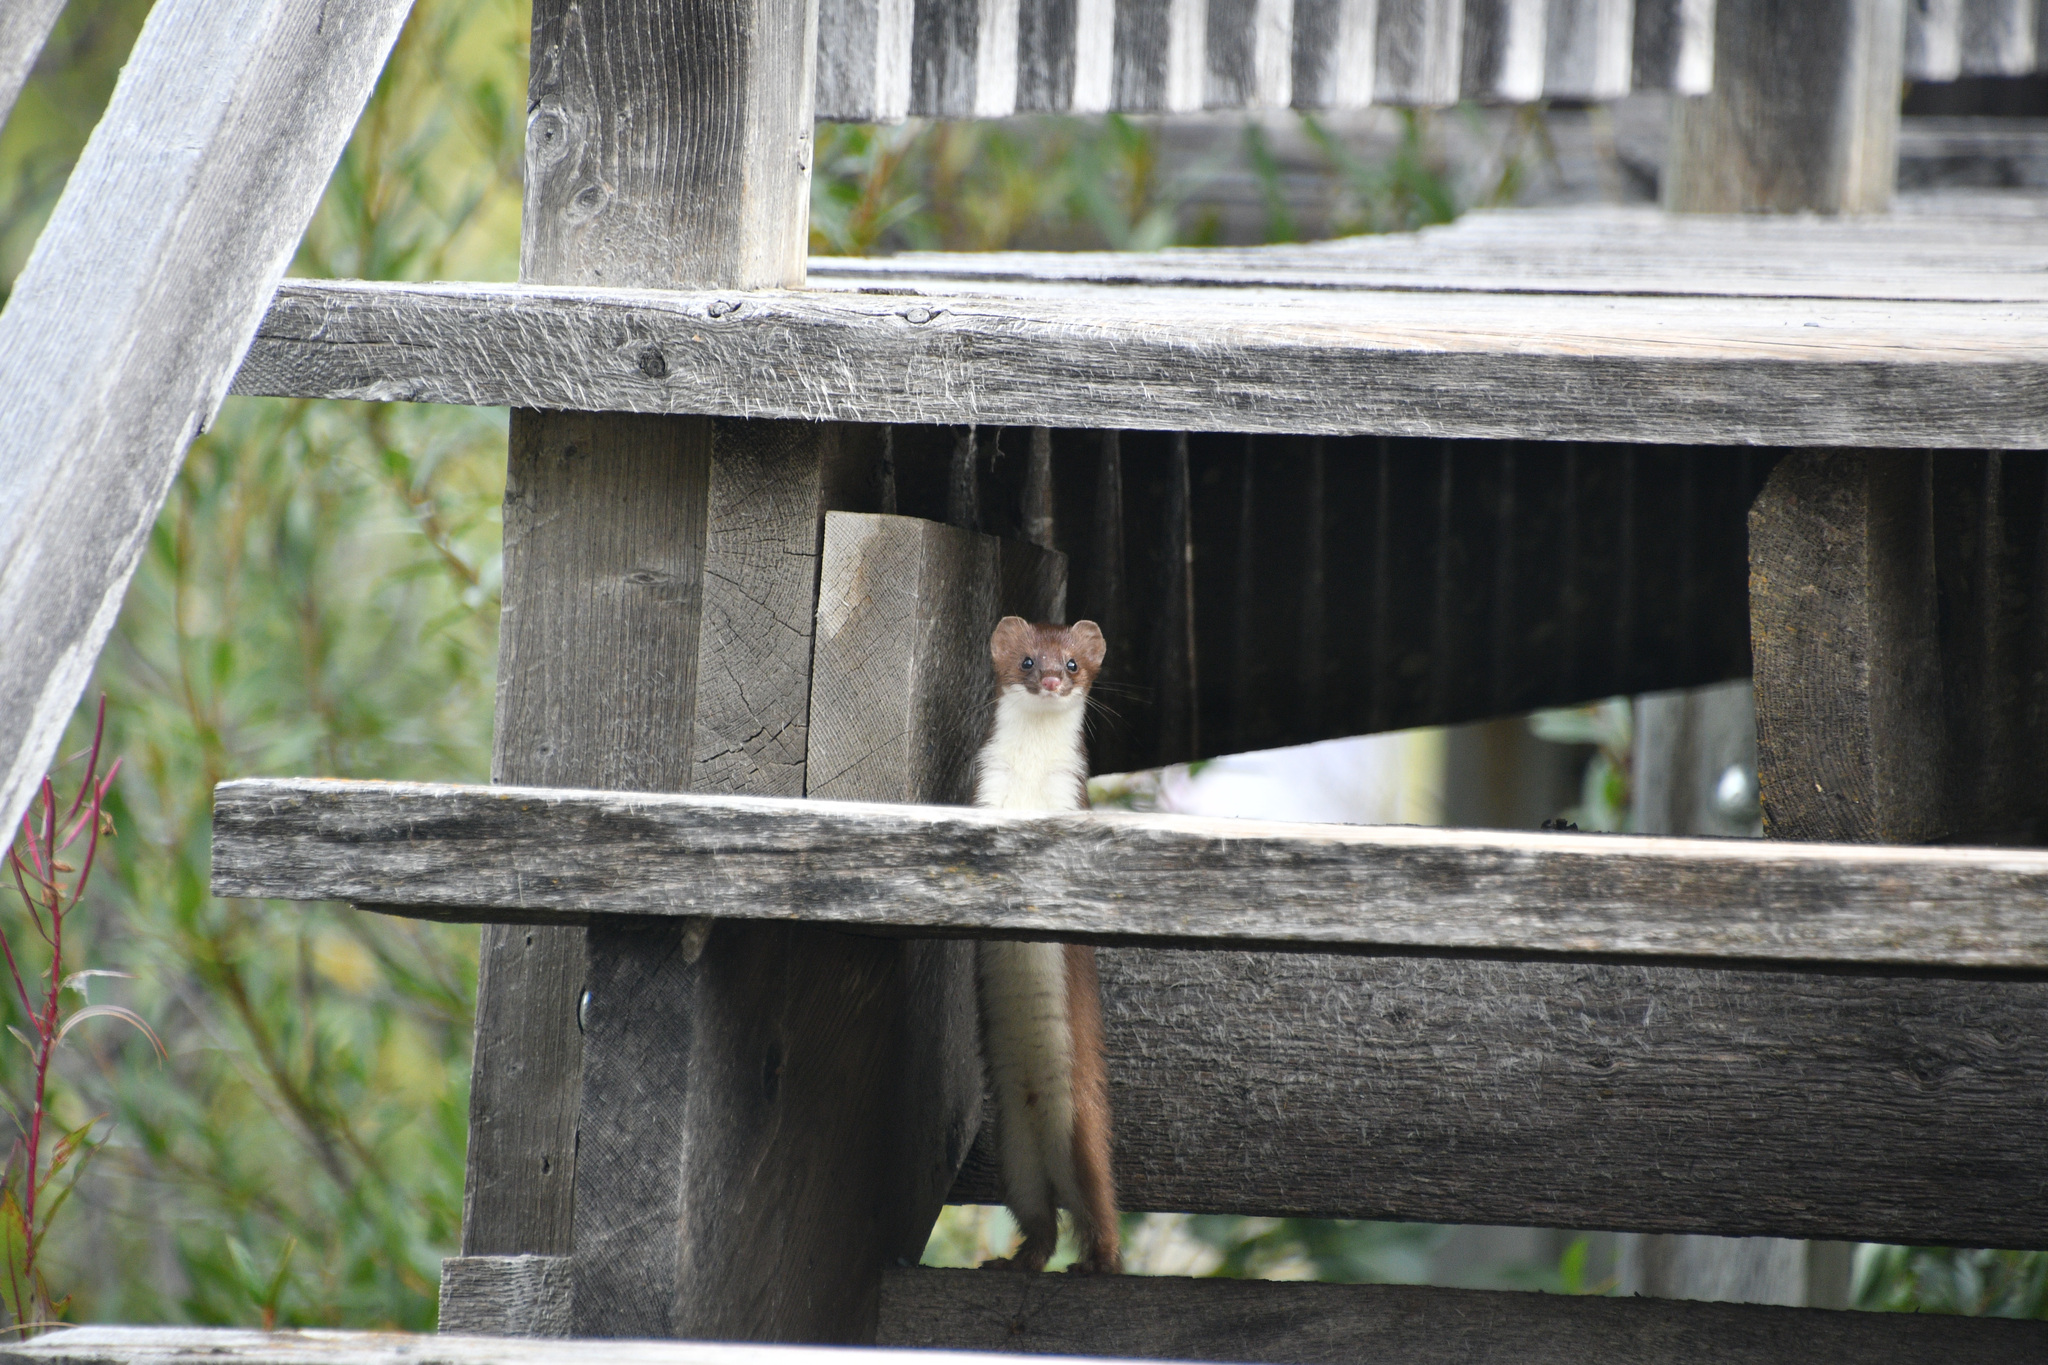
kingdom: Animalia
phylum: Chordata
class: Mammalia
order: Carnivora
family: Mustelidae
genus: Mustela
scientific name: Mustela erminea
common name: Stoat
